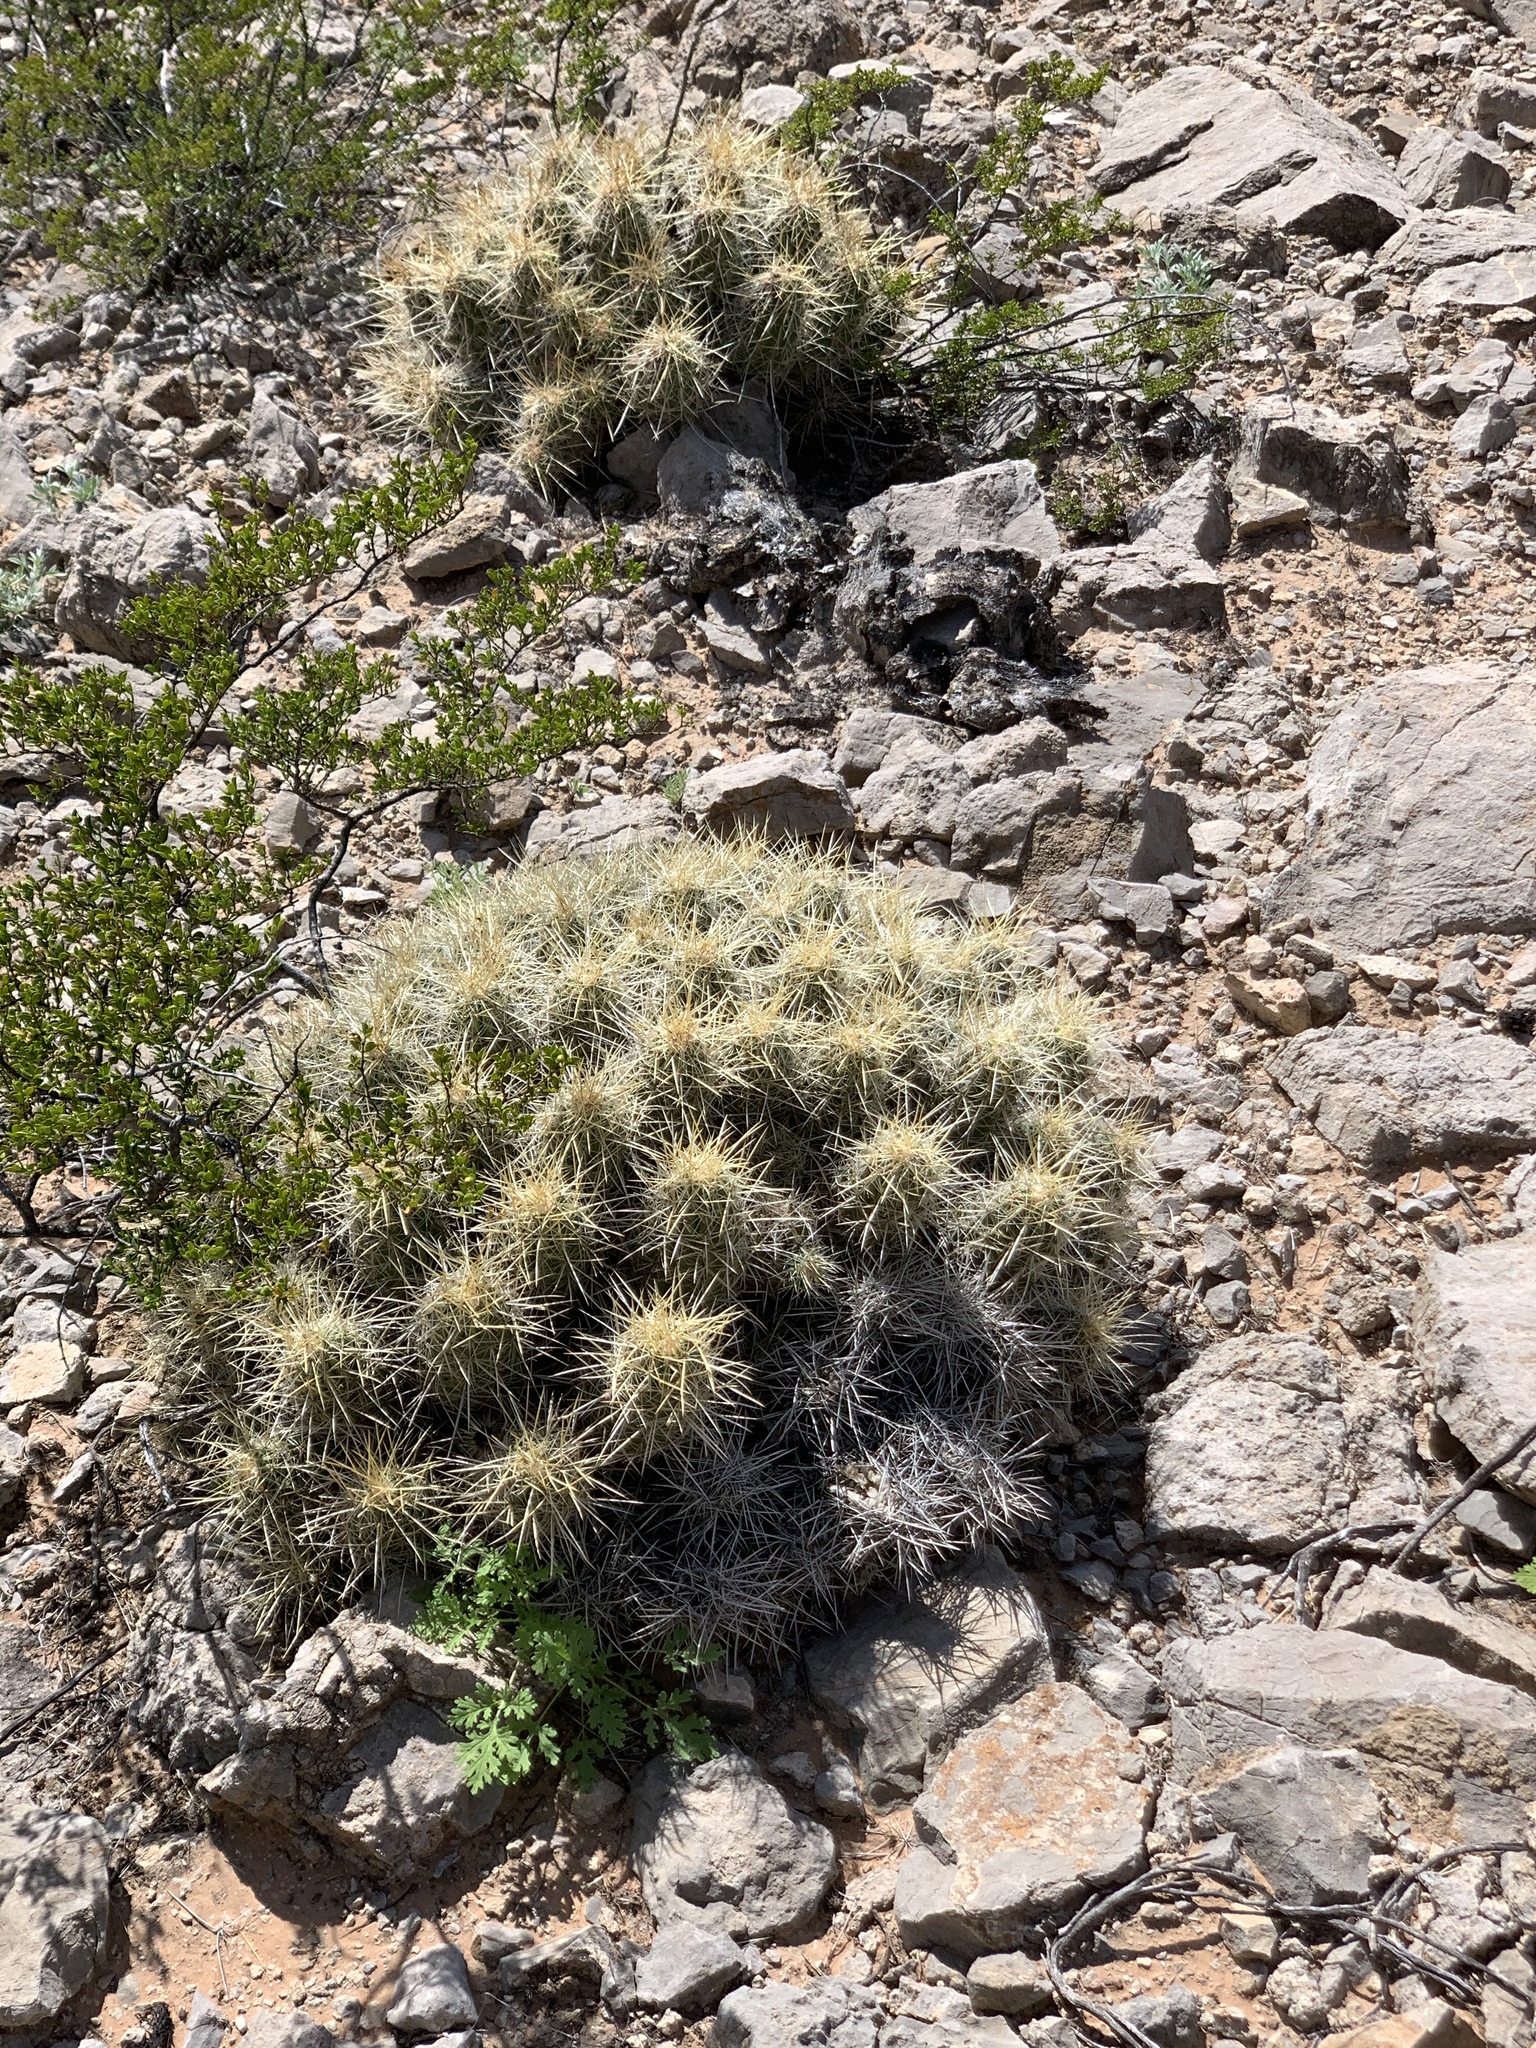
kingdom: Plantae
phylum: Tracheophyta
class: Magnoliopsida
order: Caryophyllales
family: Cactaceae
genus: Echinocereus
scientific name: Echinocereus stramineus
